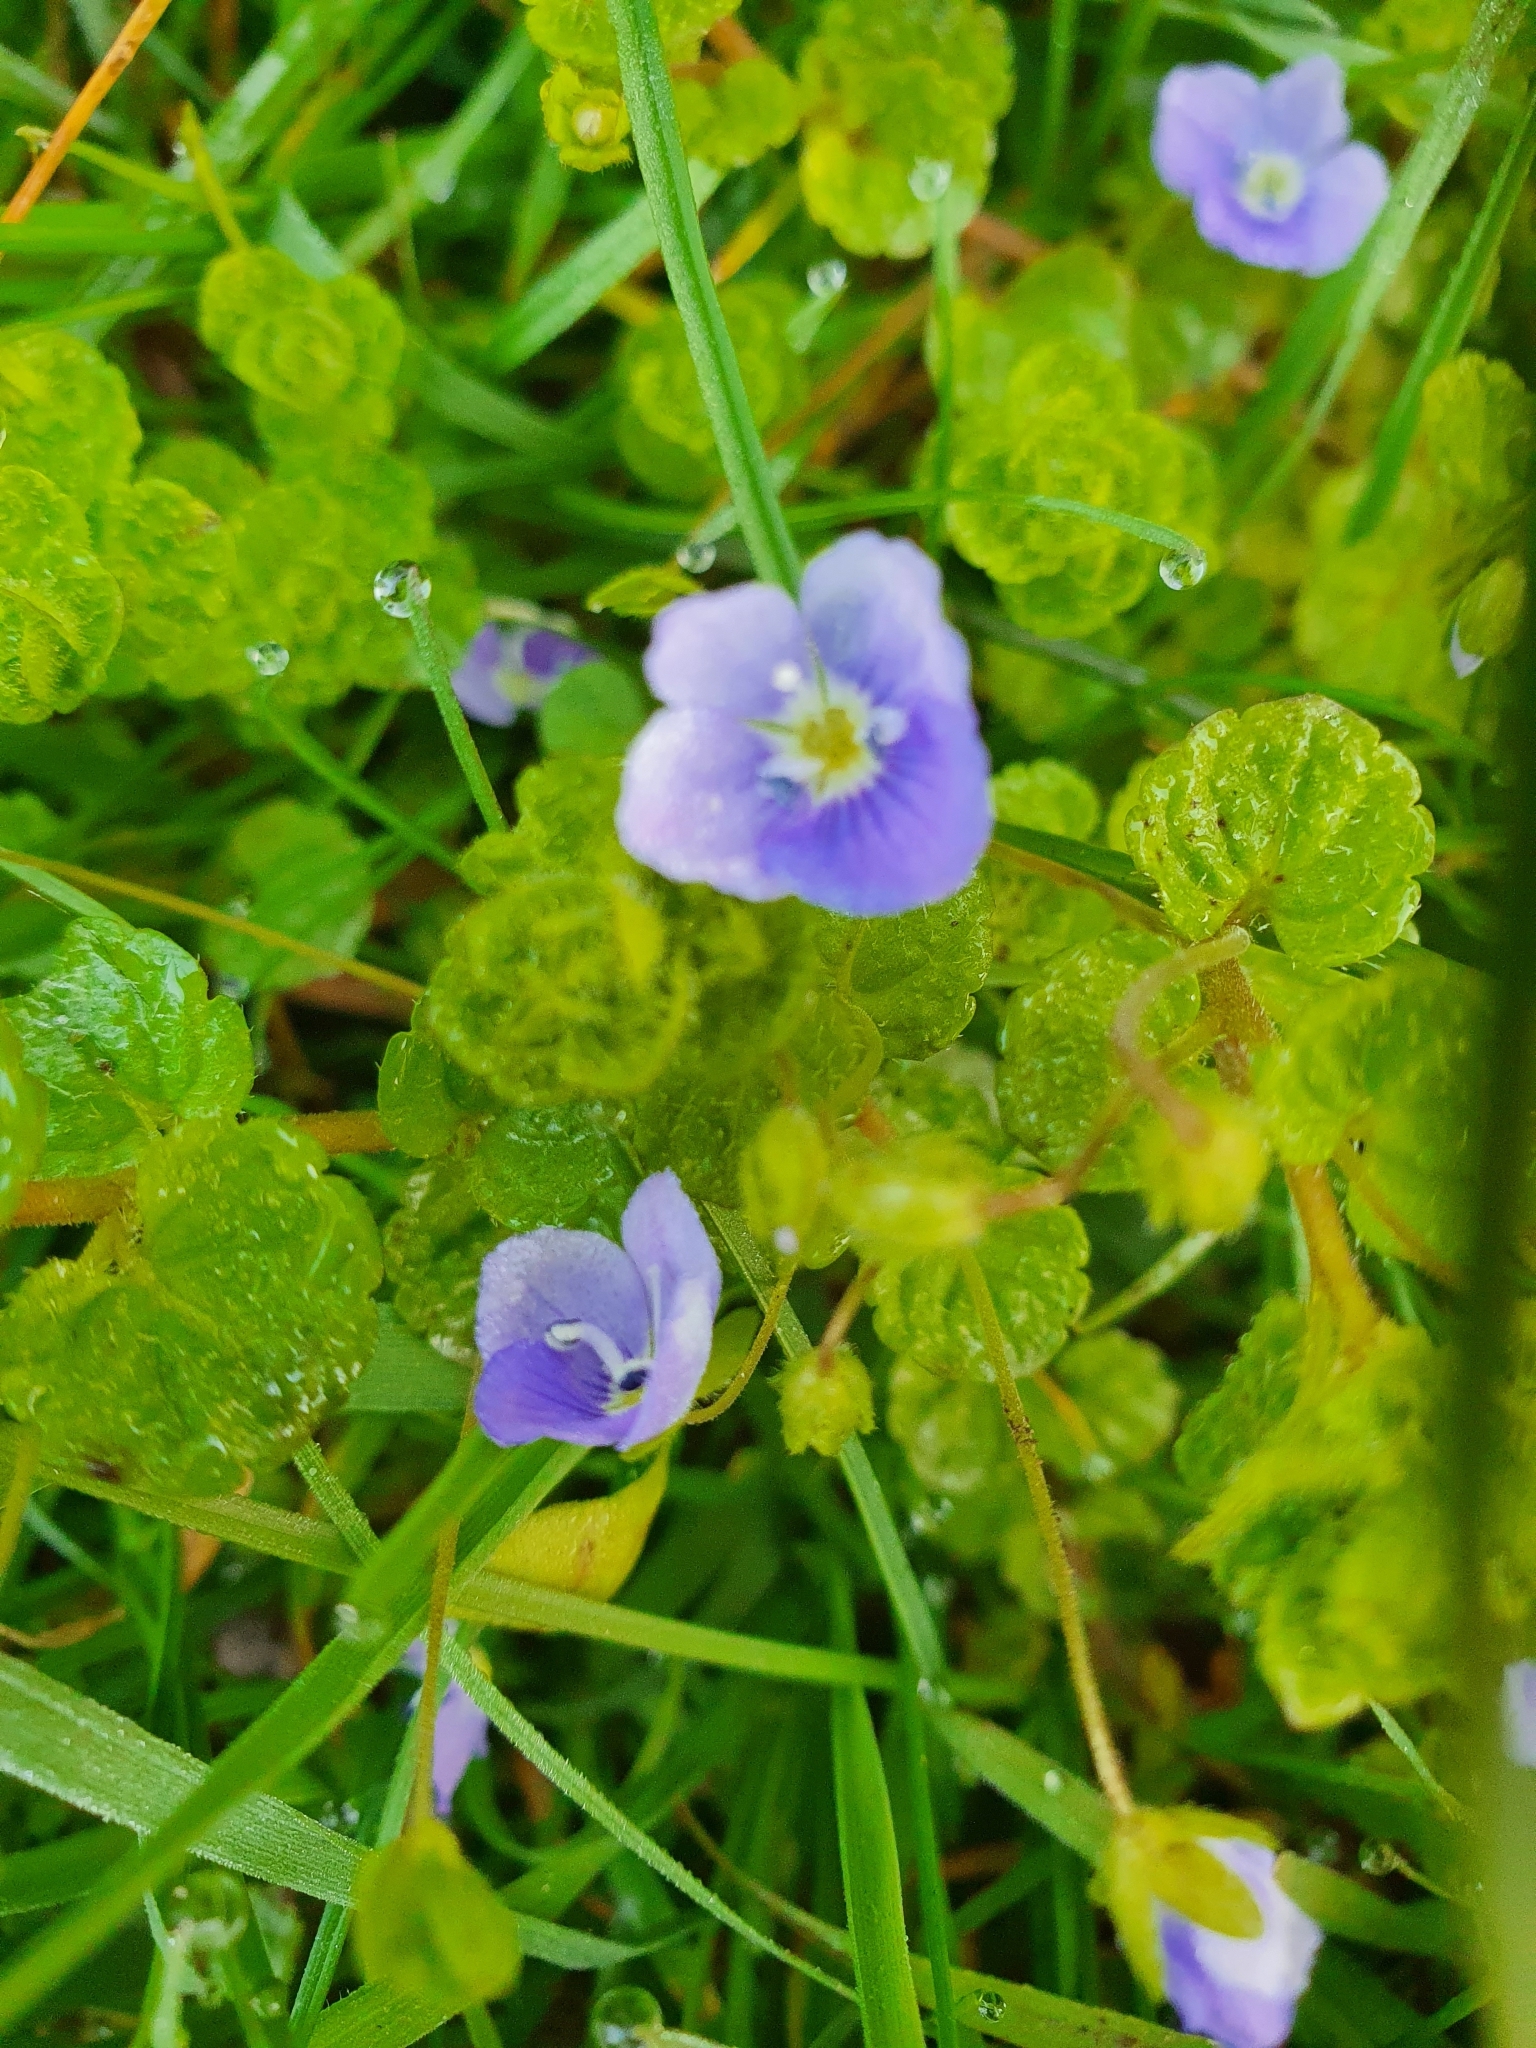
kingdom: Plantae
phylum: Tracheophyta
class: Magnoliopsida
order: Lamiales
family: Plantaginaceae
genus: Veronica
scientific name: Veronica filiformis
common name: Slender speedwell
